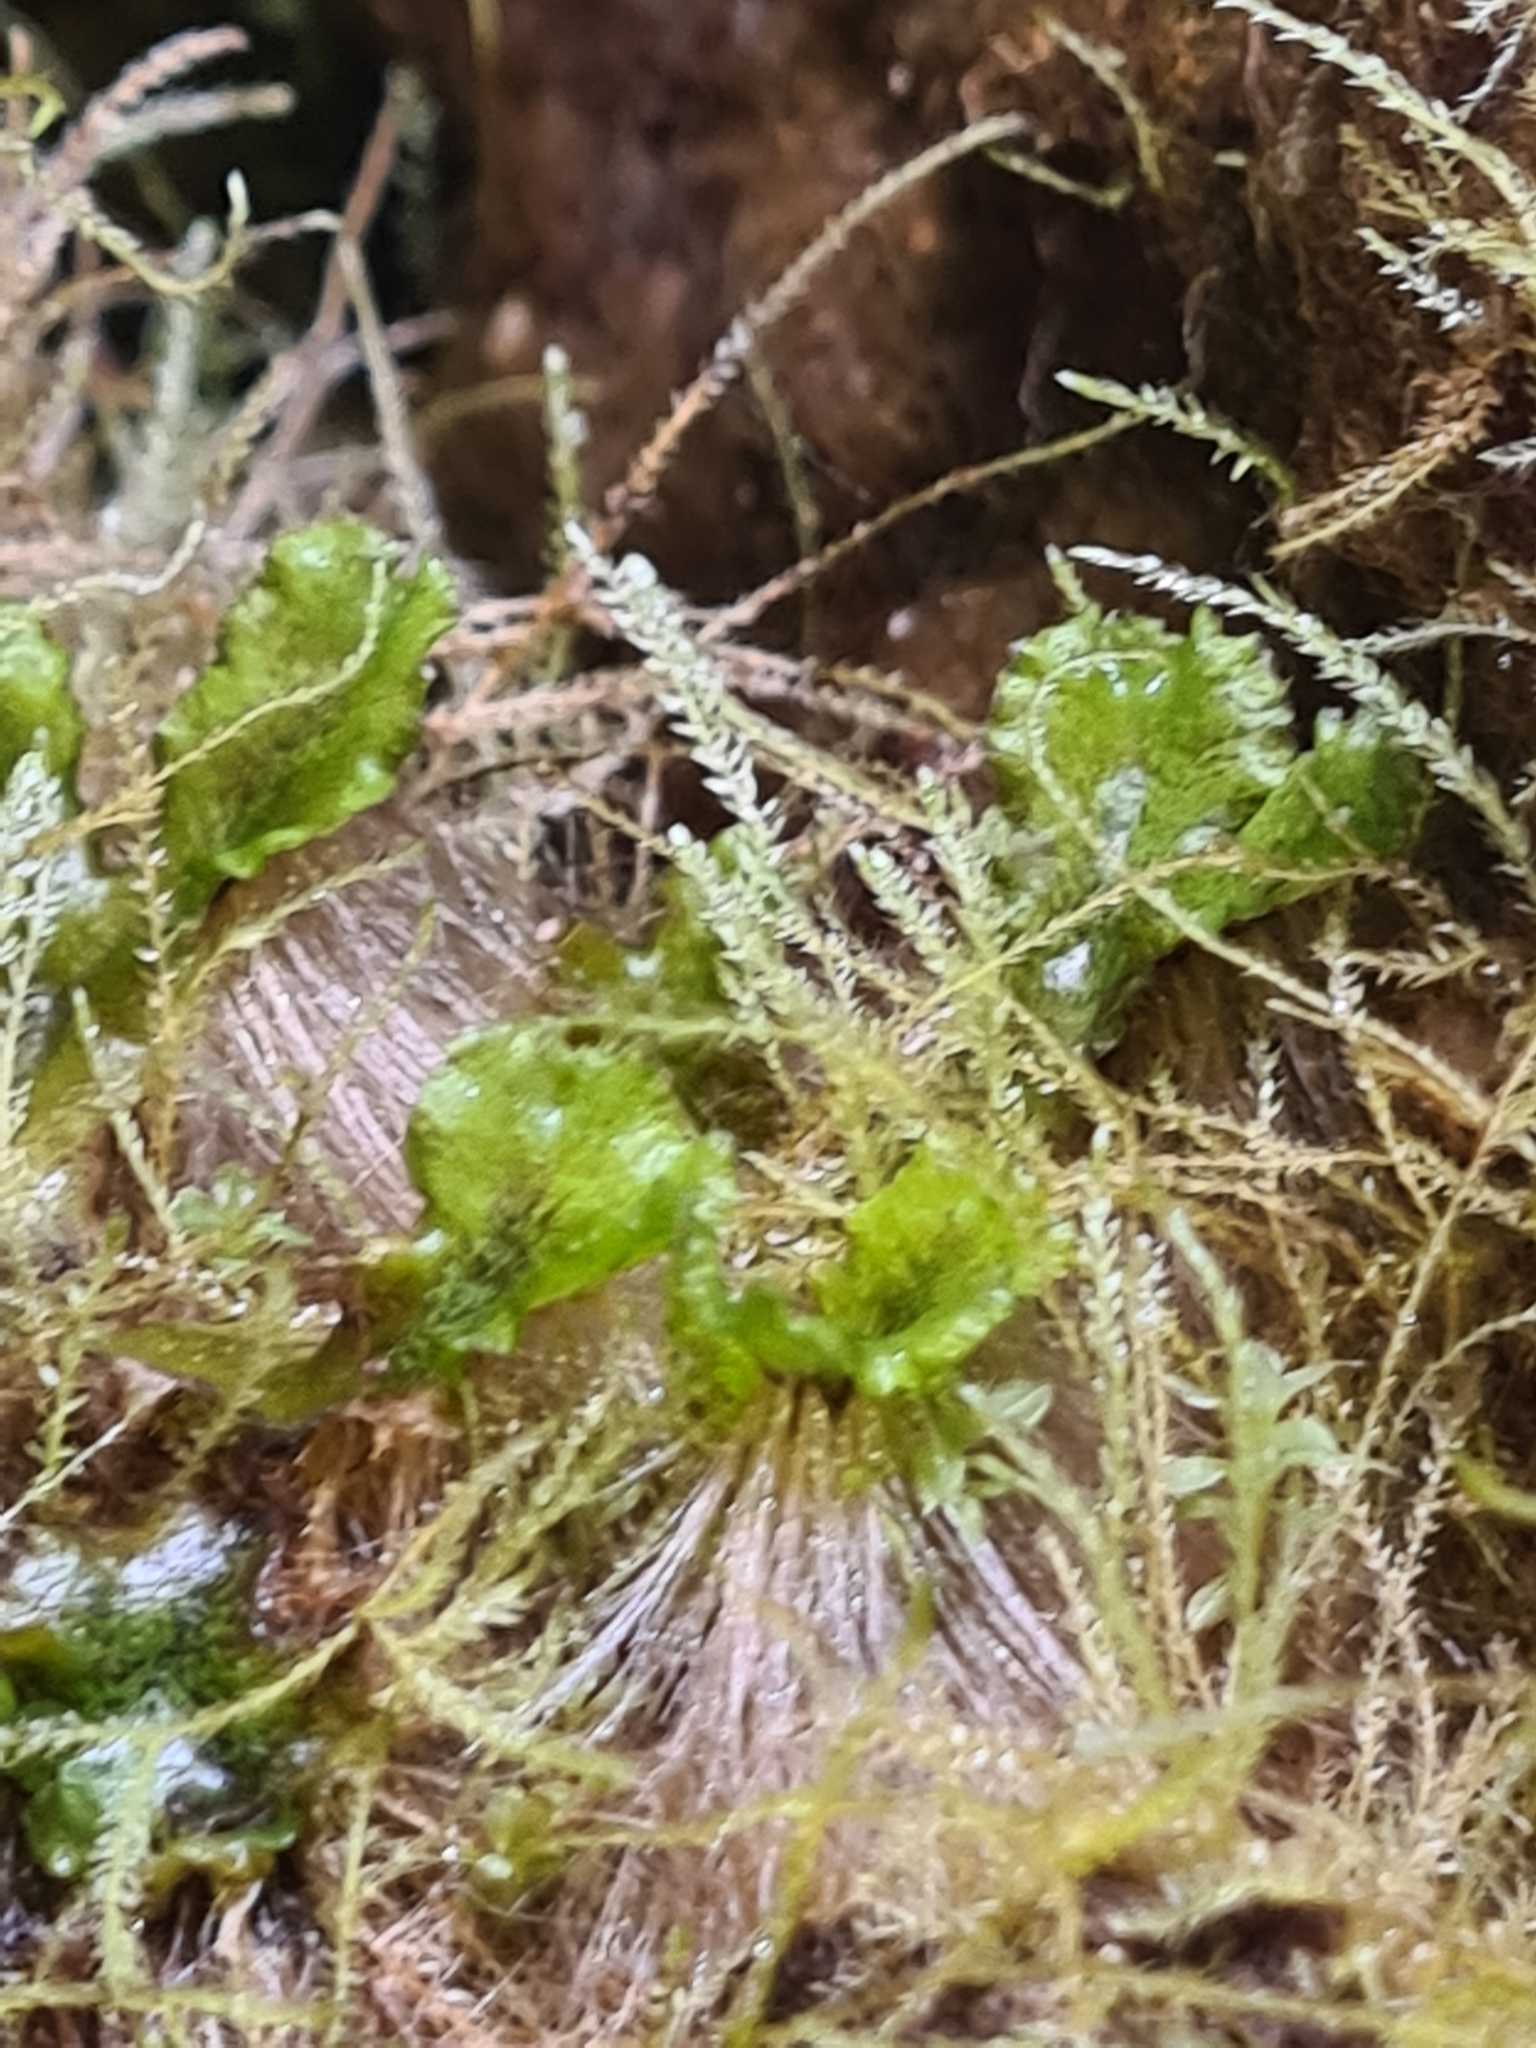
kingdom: Plantae
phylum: Marchantiophyta
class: Marchantiopsida
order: Marchantiales
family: Marchantiaceae
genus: Marchantia
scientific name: Marchantia polymorpha
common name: Common liverwort
